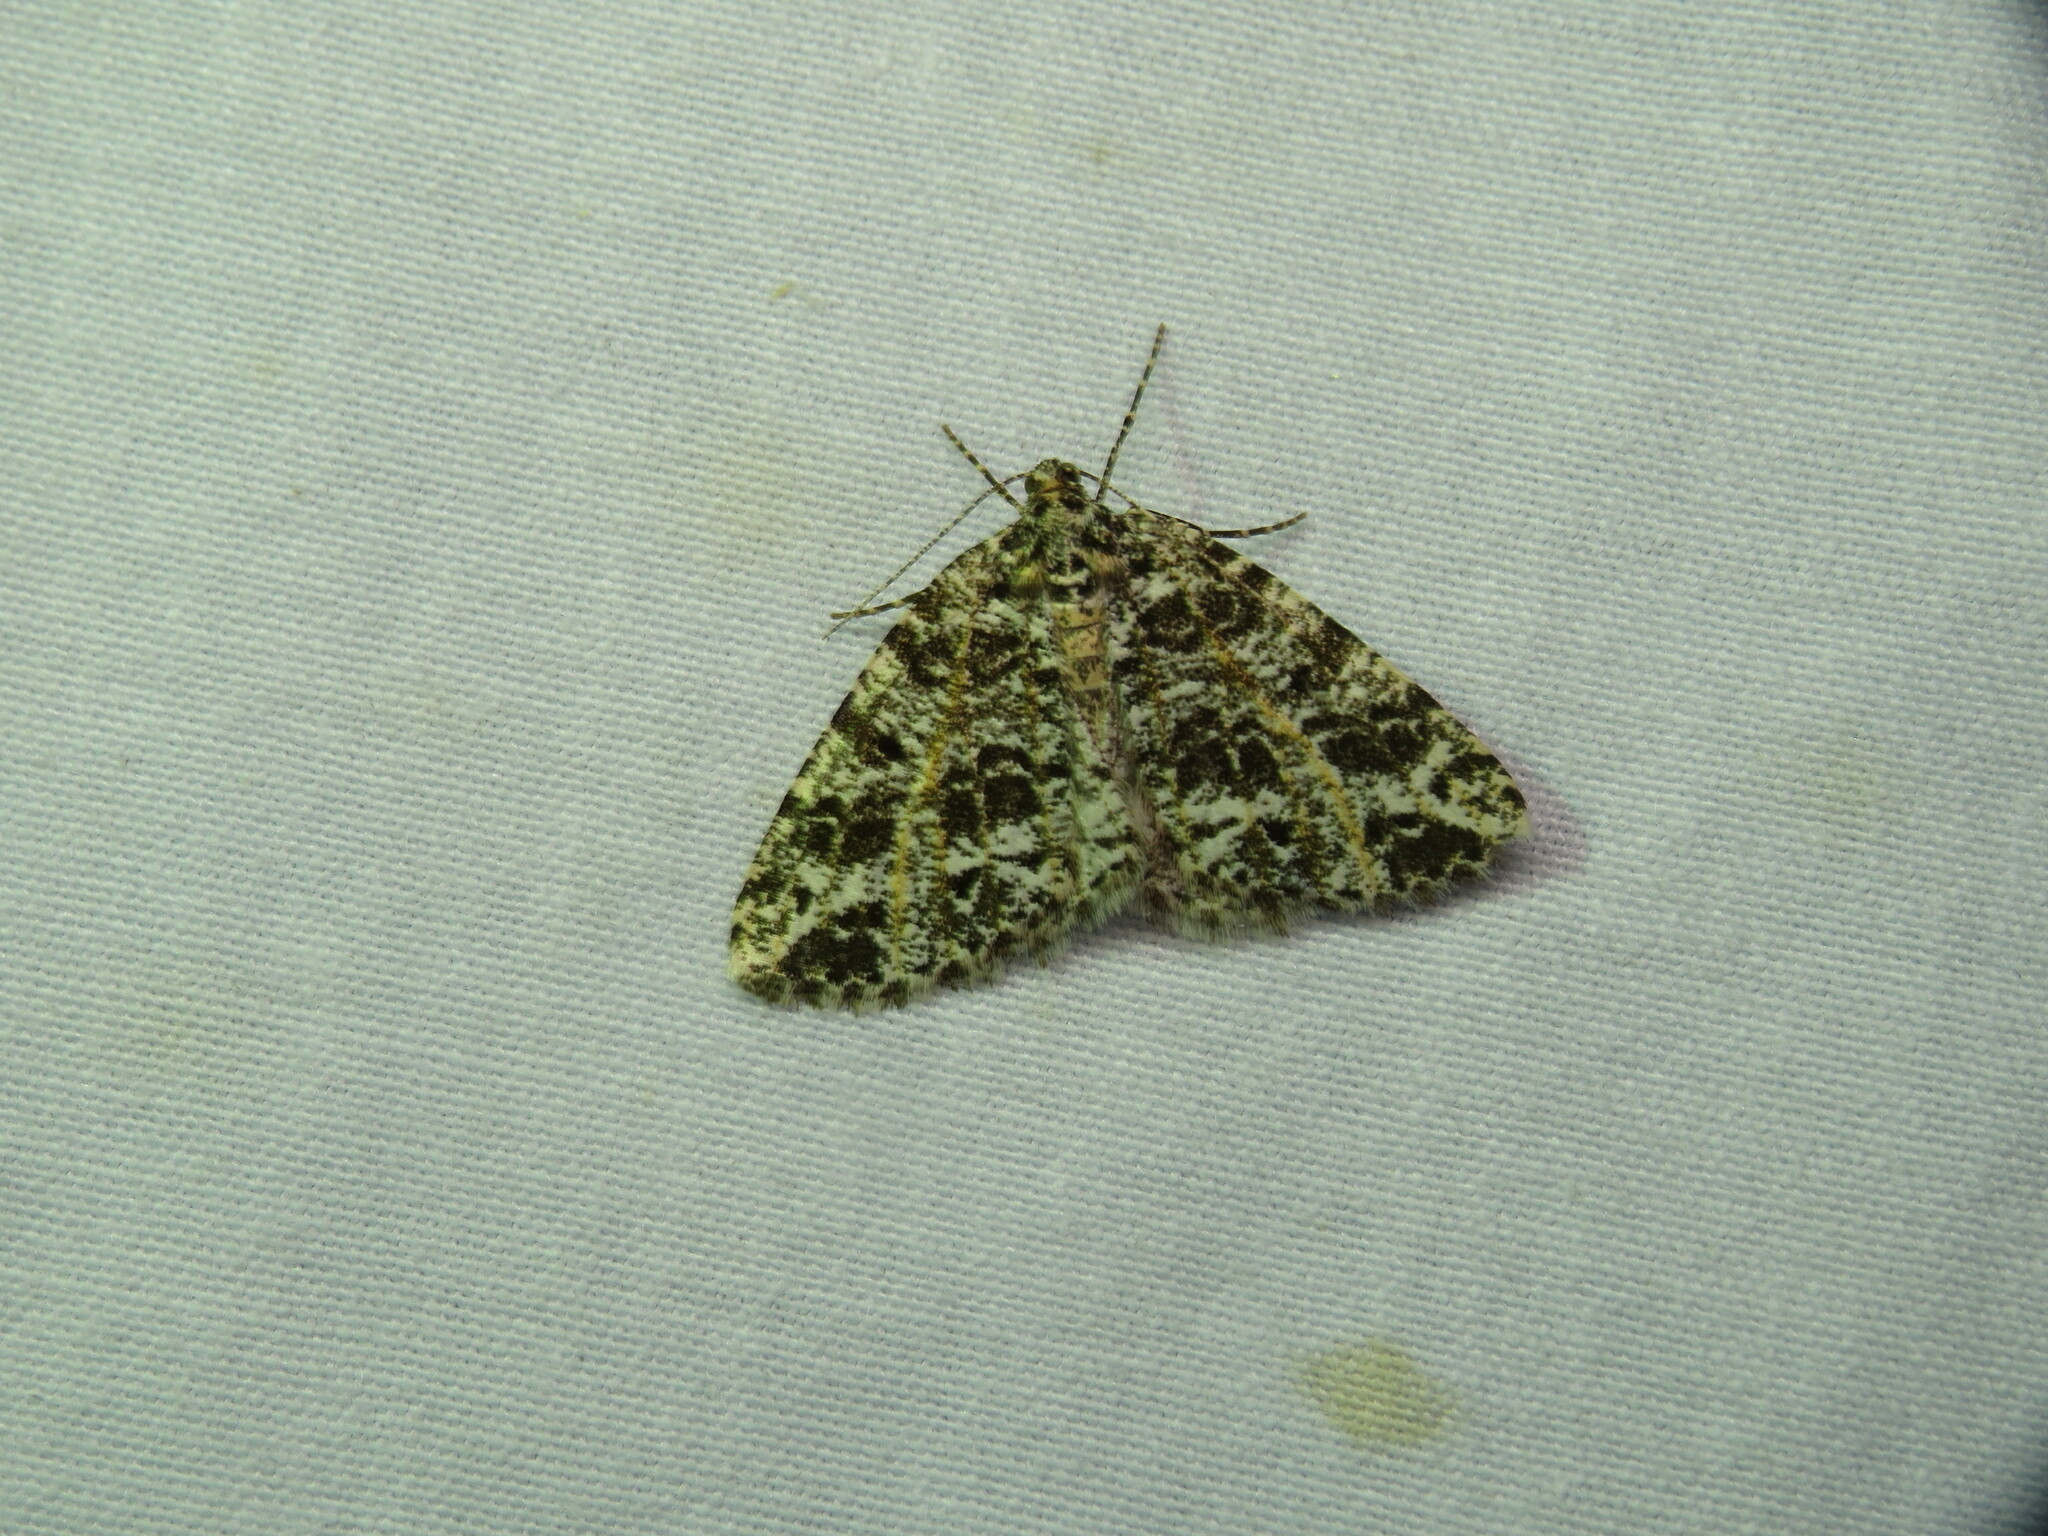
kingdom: Animalia
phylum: Arthropoda
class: Insecta
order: Lepidoptera
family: Geometridae
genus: Orthofidonia
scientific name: Orthofidonia flavivenata
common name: Yellow-veined geometer moth
